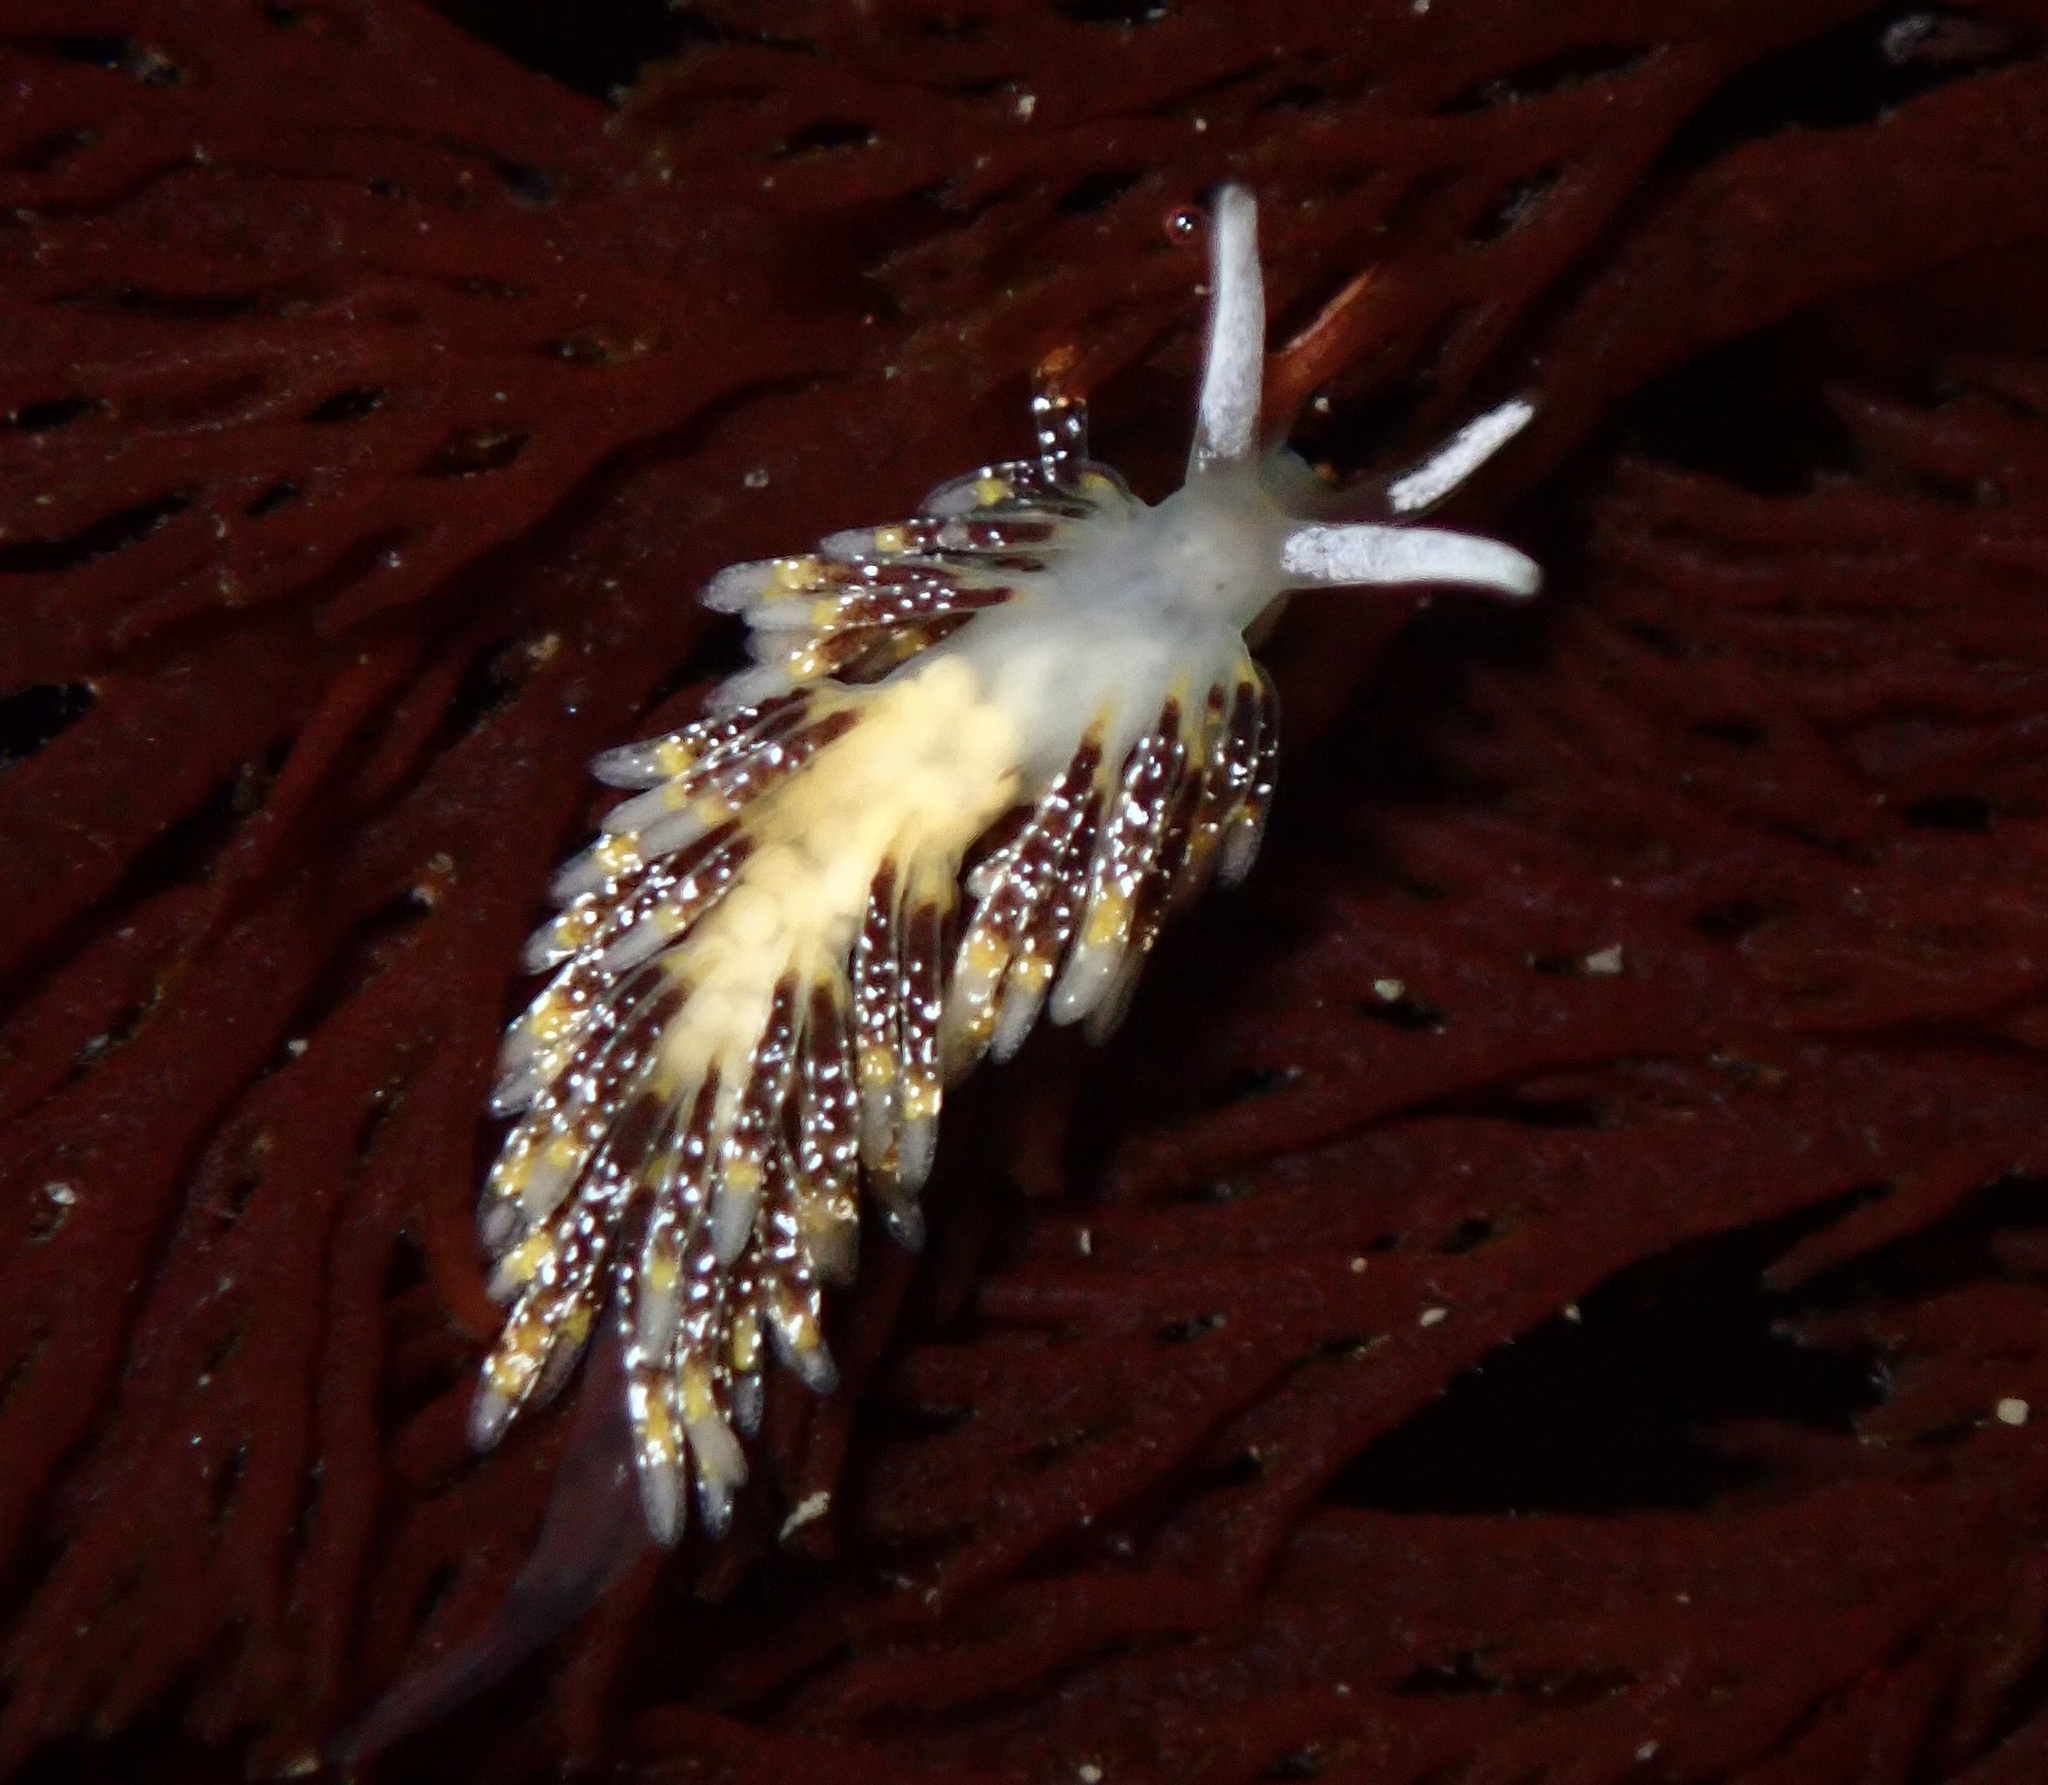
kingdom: Animalia
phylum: Mollusca
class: Gastropoda
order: Nudibranchia
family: Trinchesiidae
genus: Zelentia
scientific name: Zelentia fulgens
